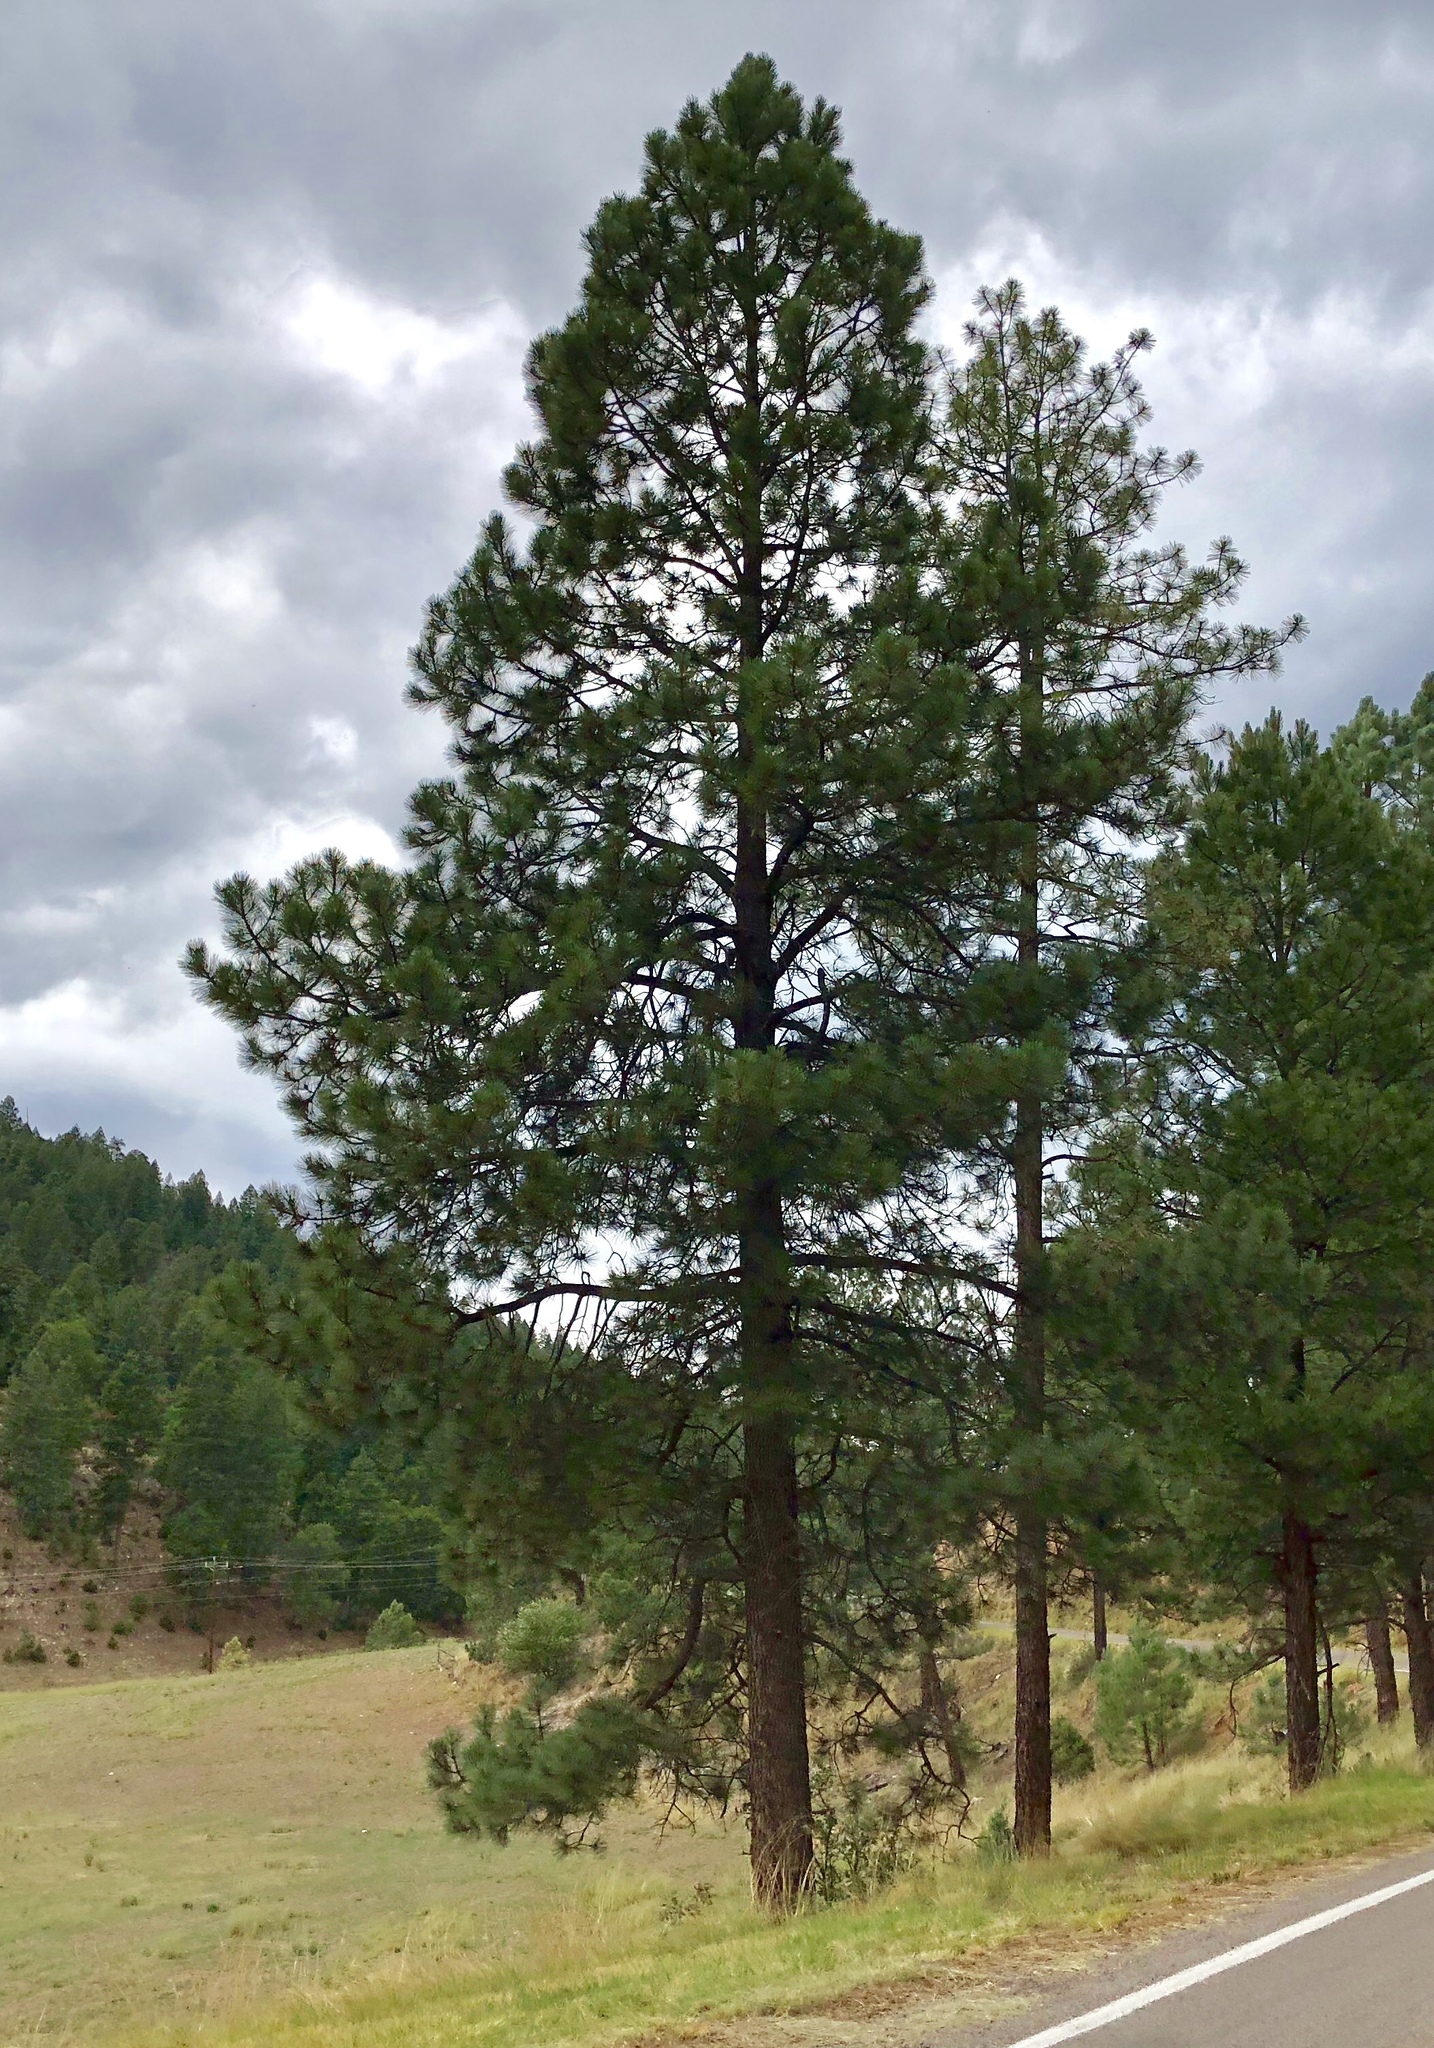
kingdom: Plantae
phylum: Tracheophyta
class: Pinopsida
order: Pinales
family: Pinaceae
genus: Pinus
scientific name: Pinus ponderosa
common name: Western yellow-pine
